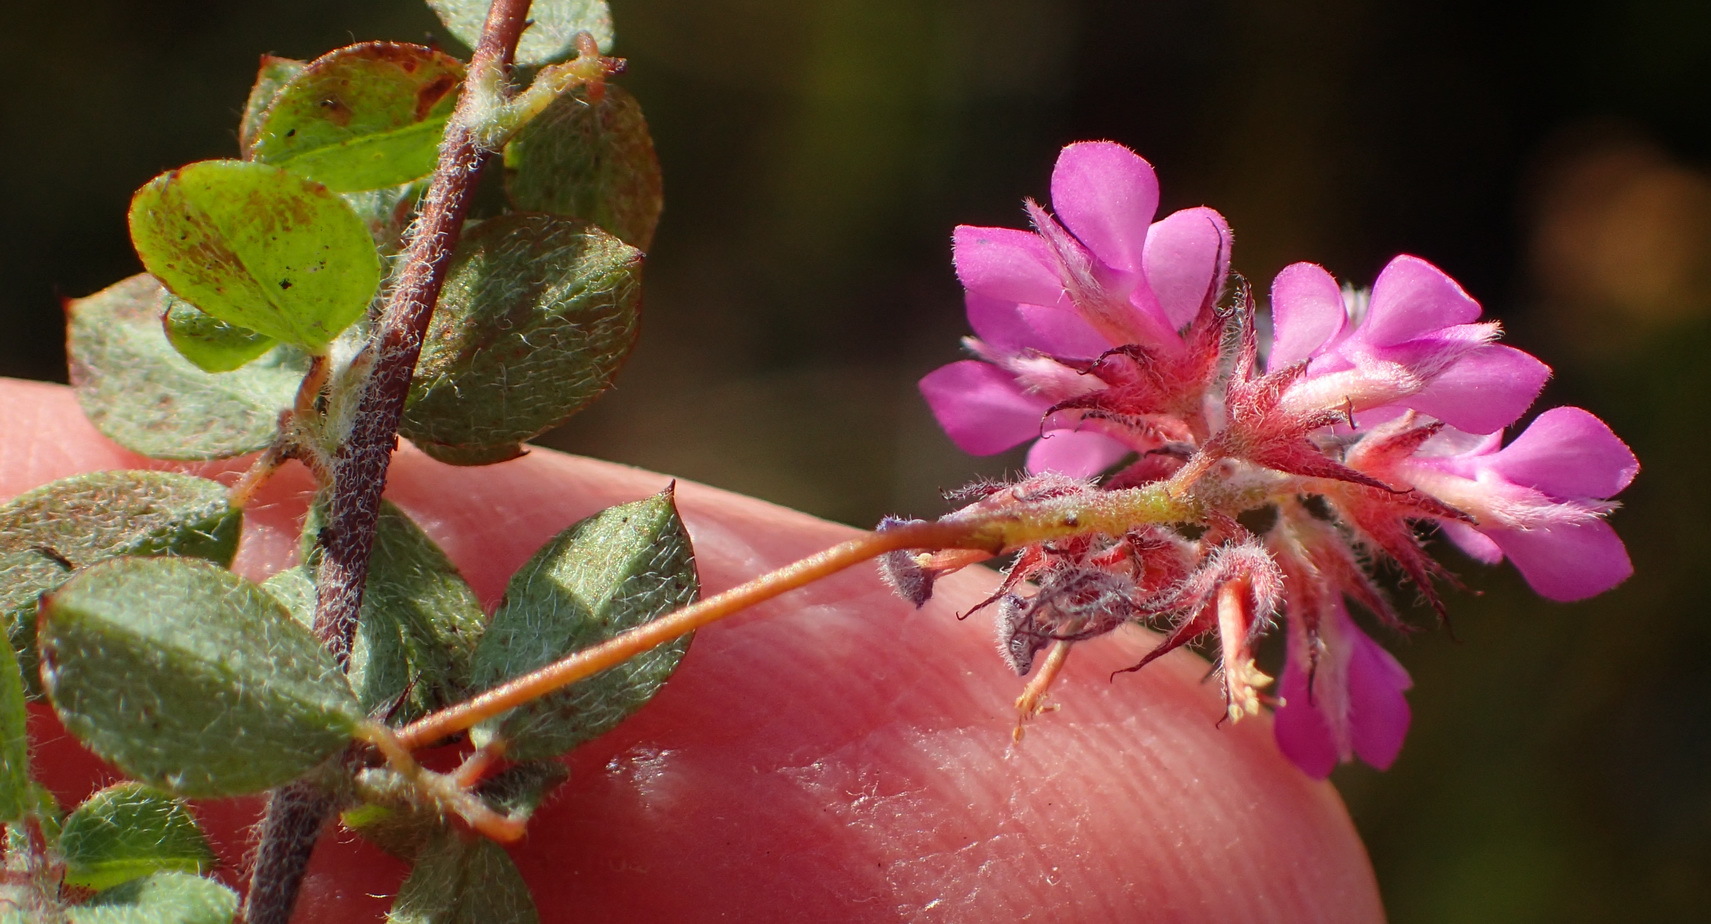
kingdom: Plantae
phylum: Tracheophyta
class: Magnoliopsida
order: Fabales
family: Fabaceae
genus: Indigofera
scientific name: Indigofera alopecuroides
